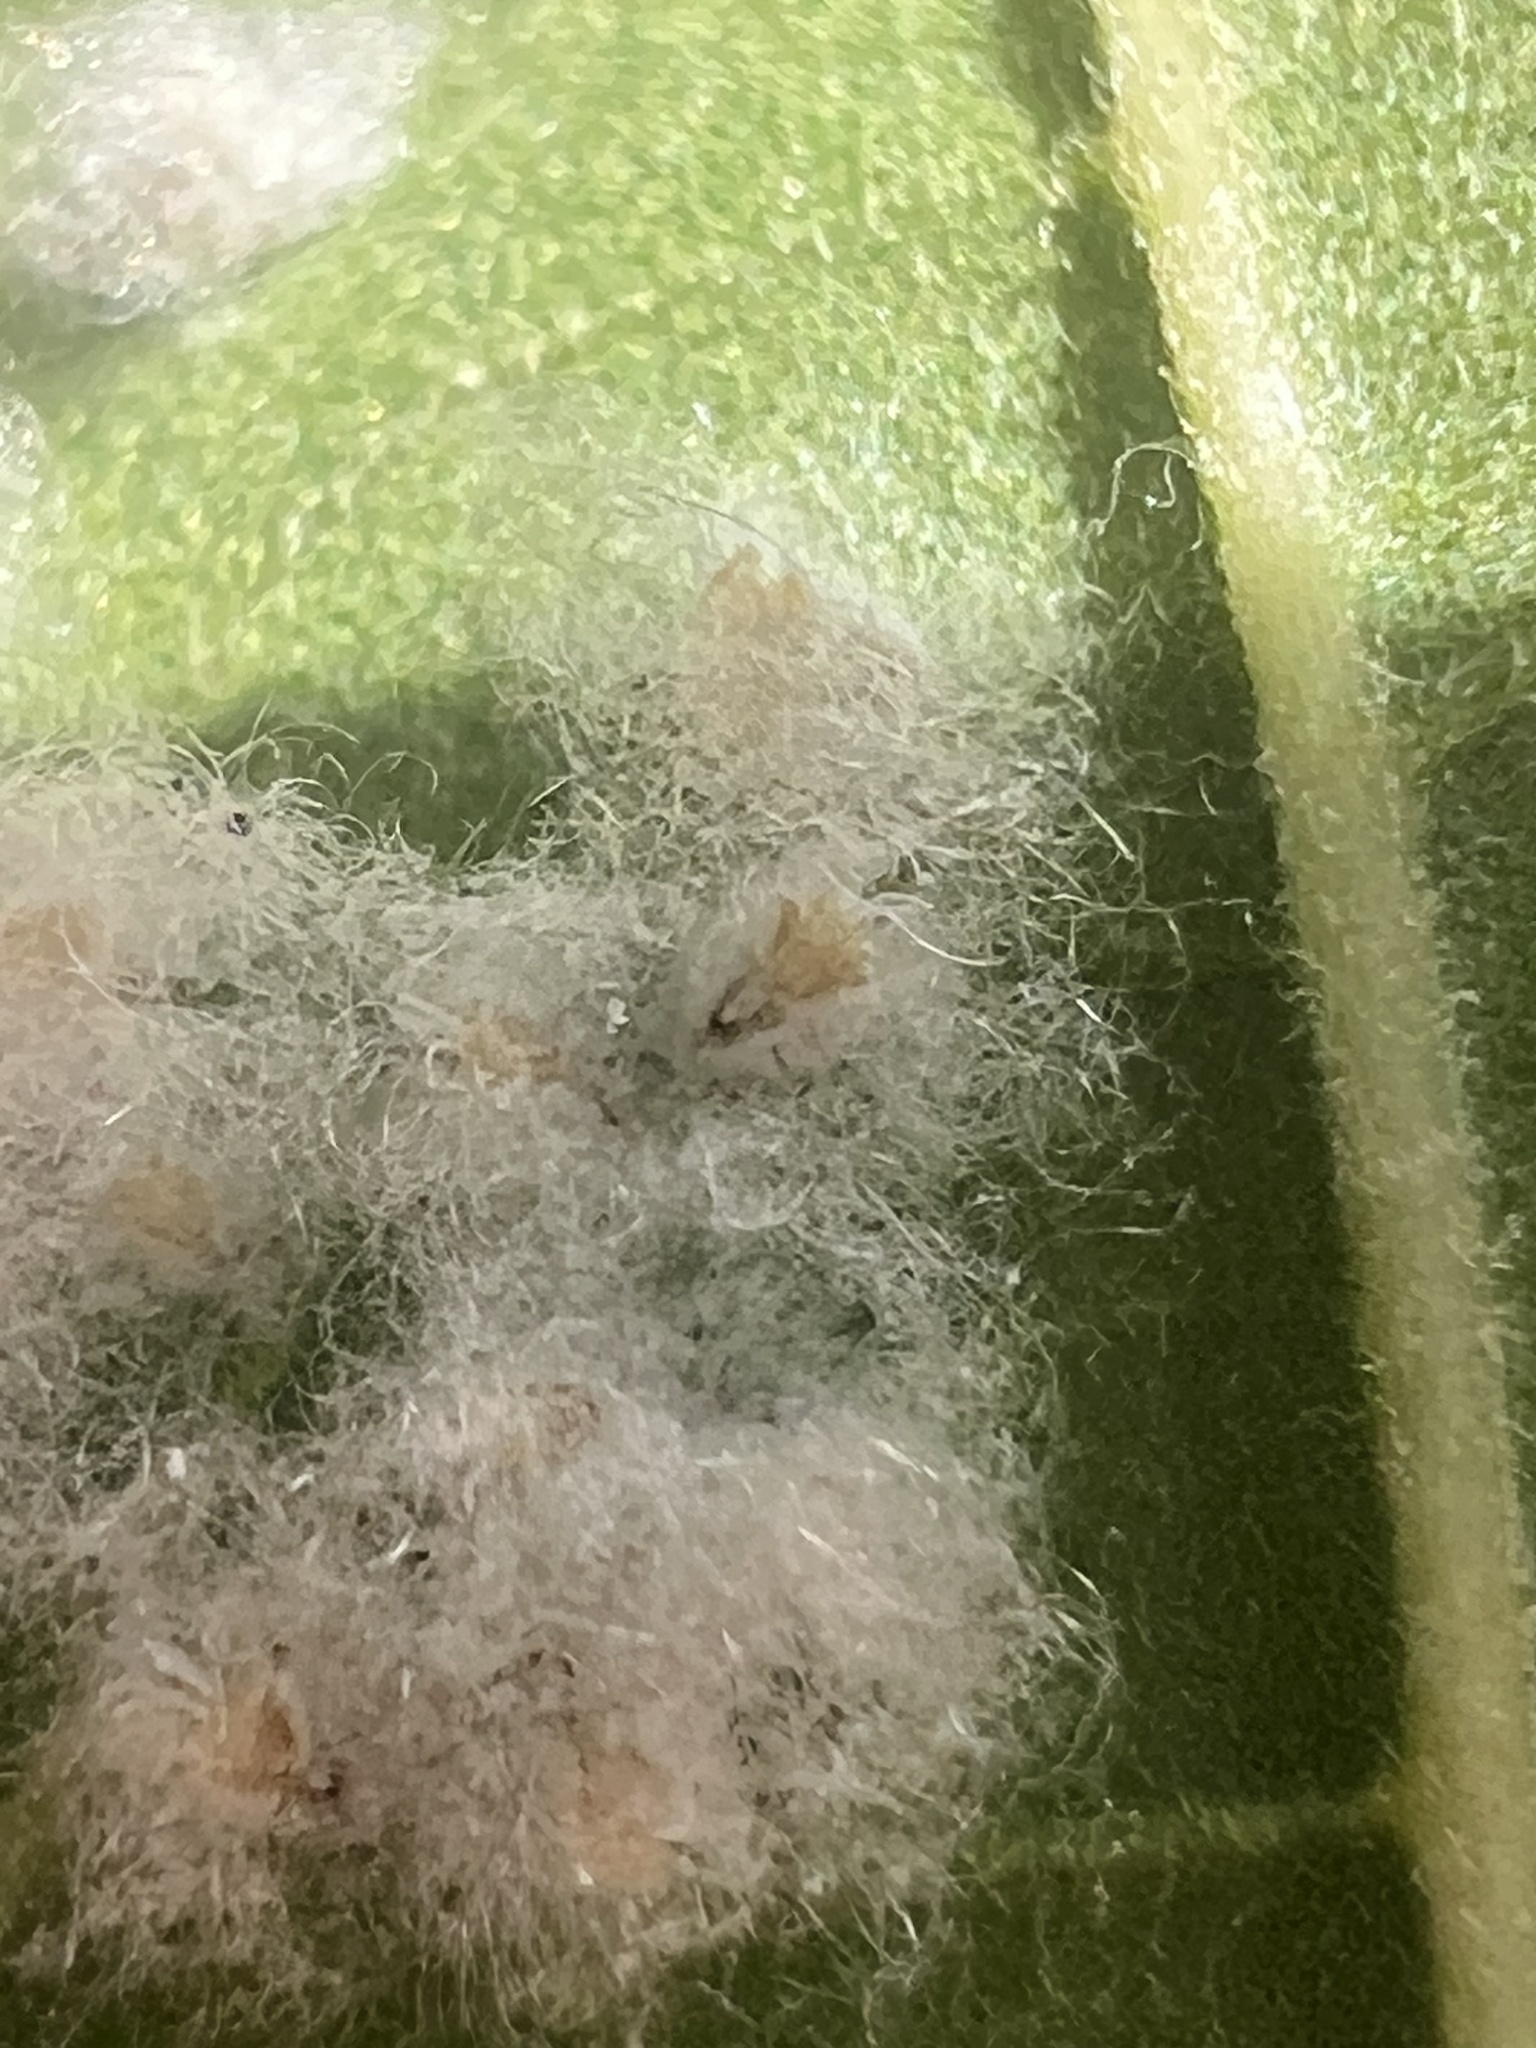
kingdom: Animalia
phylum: Arthropoda
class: Insecta
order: Hemiptera
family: Aleyrodidae
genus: Aleurothrixus
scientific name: Aleurothrixus floccosus
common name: Whitefly
